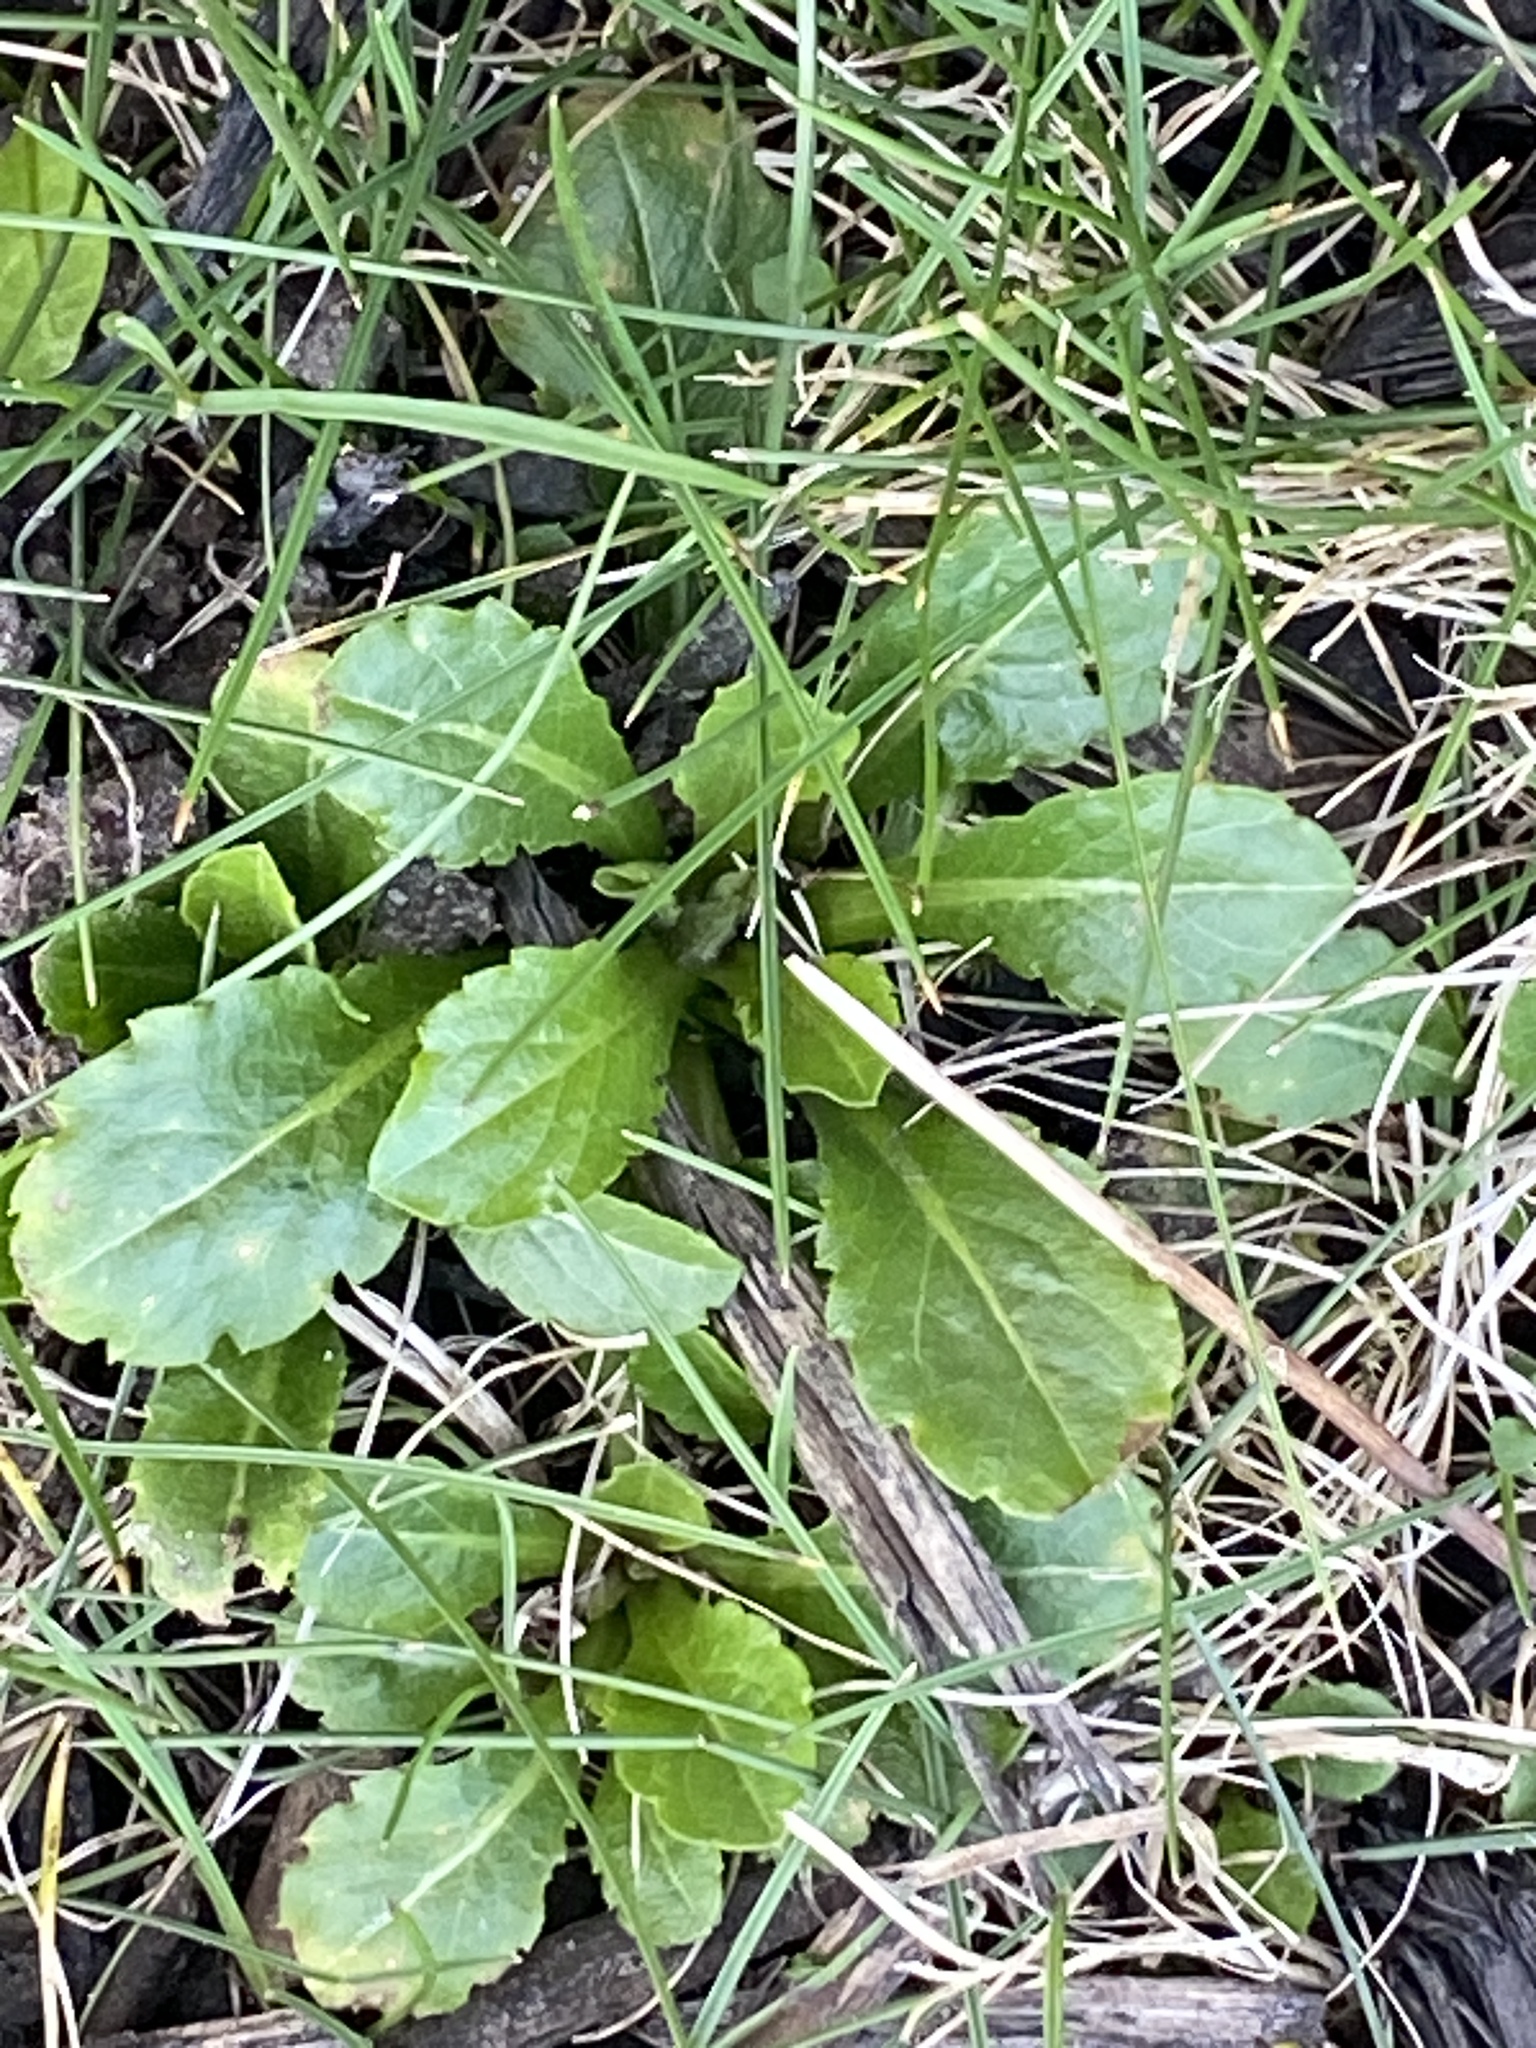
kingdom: Plantae
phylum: Tracheophyta
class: Magnoliopsida
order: Asterales
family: Asteraceae
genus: Bellis
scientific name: Bellis perennis
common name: Lawndaisy
